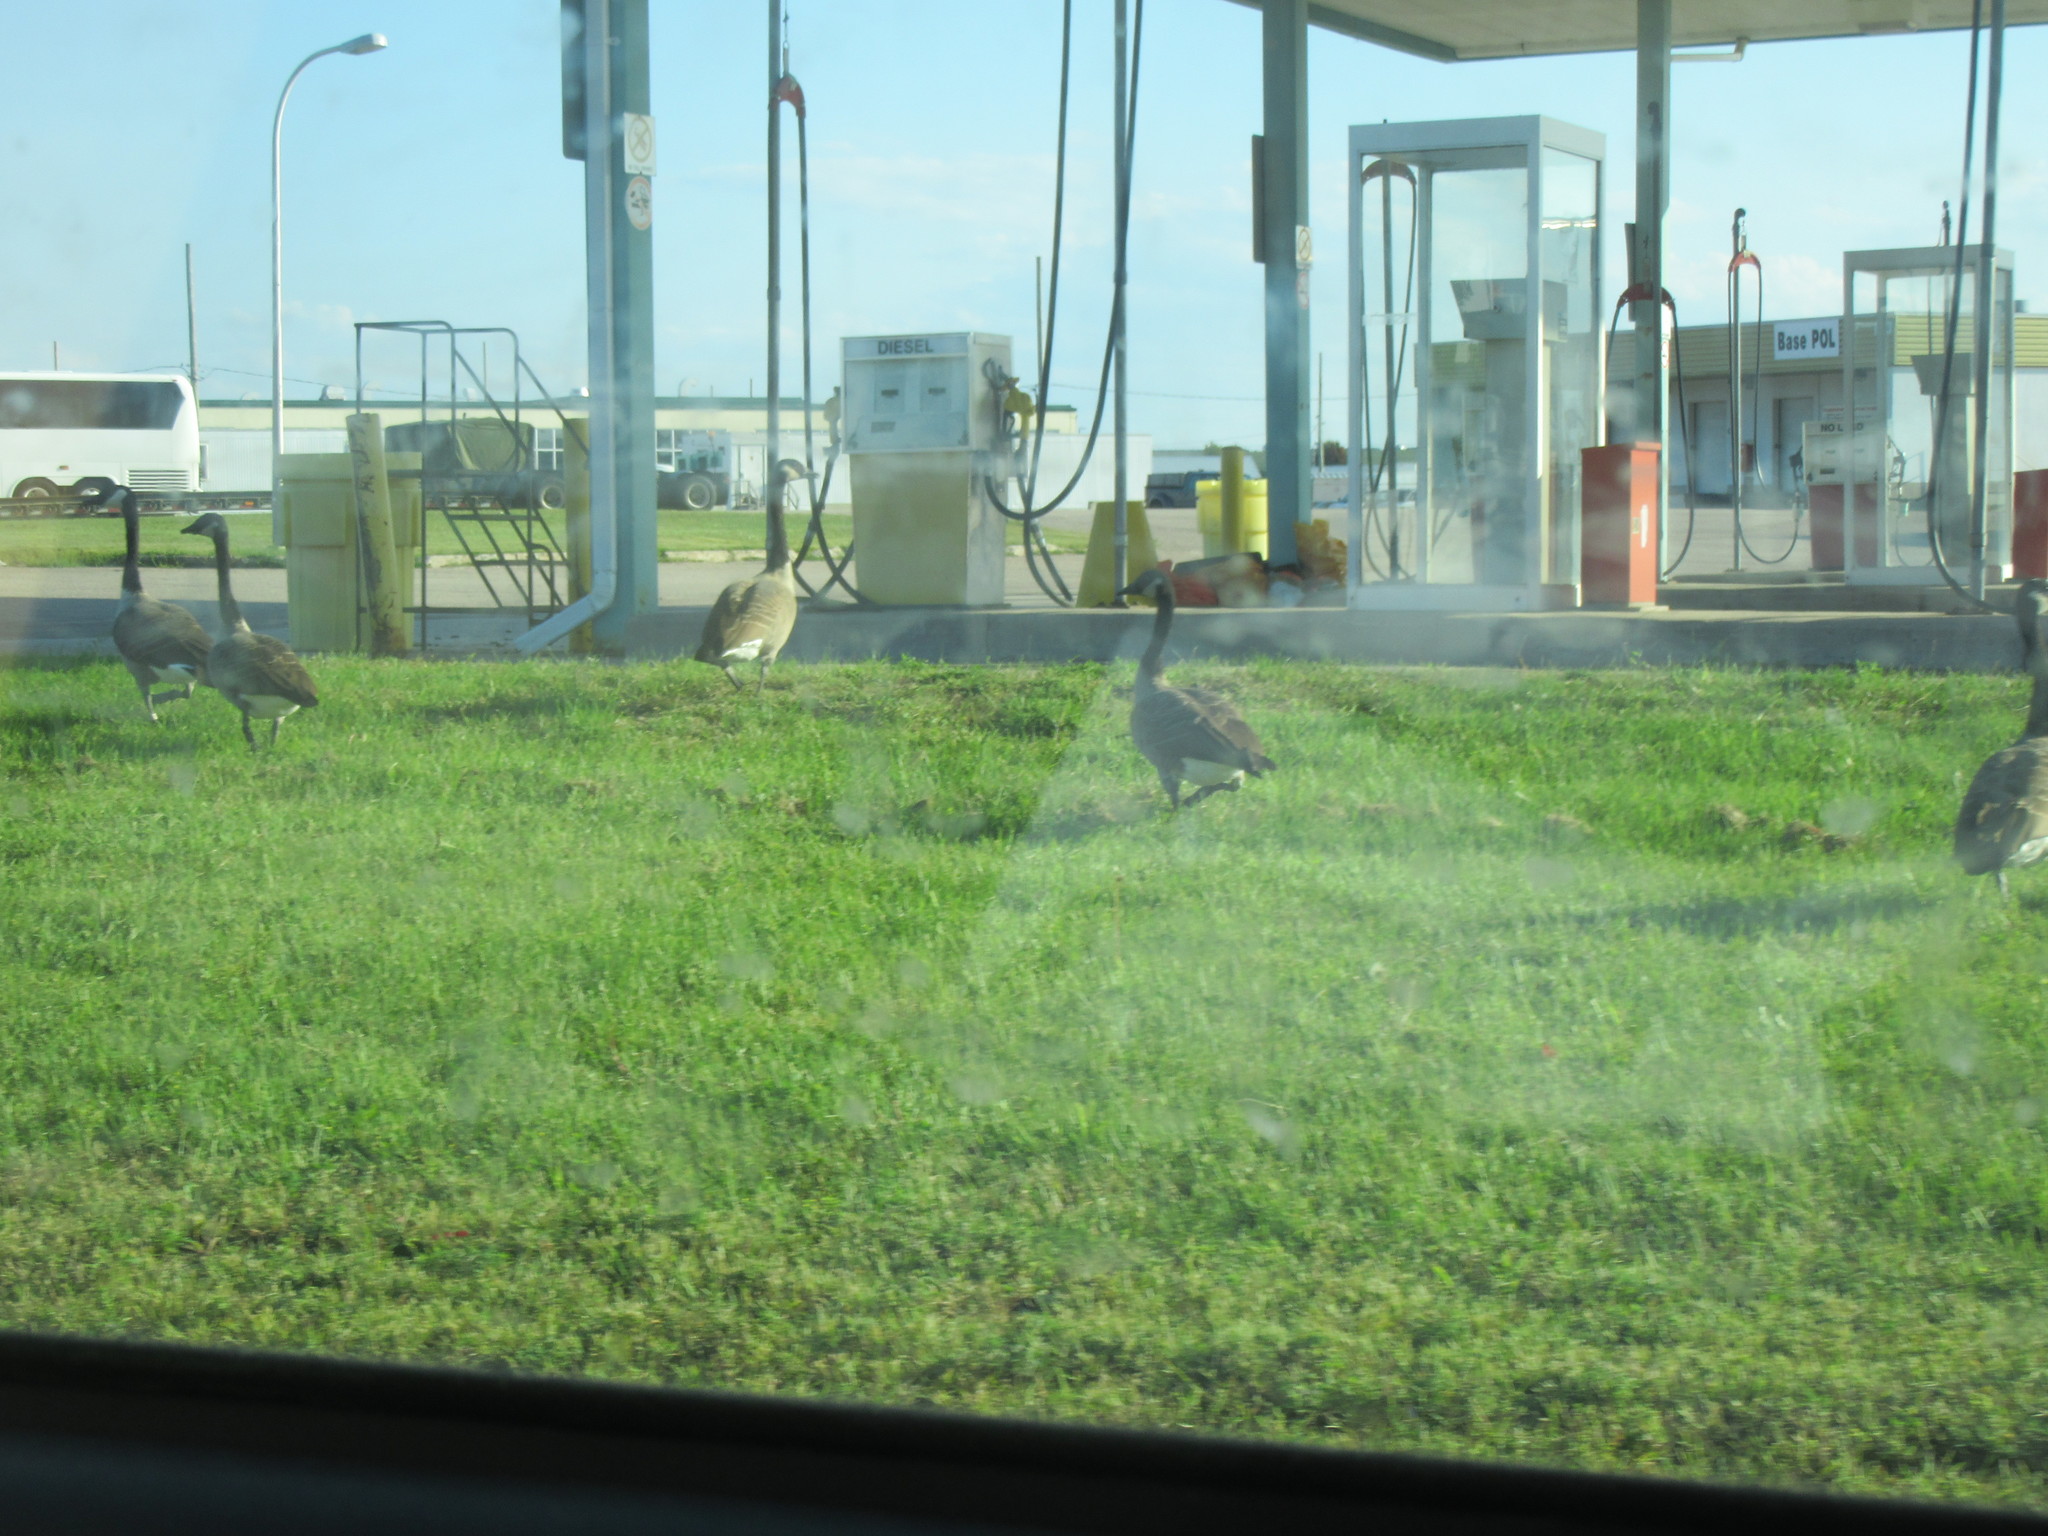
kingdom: Animalia
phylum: Chordata
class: Aves
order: Anseriformes
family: Anatidae
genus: Branta
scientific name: Branta canadensis
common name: Canada goose
